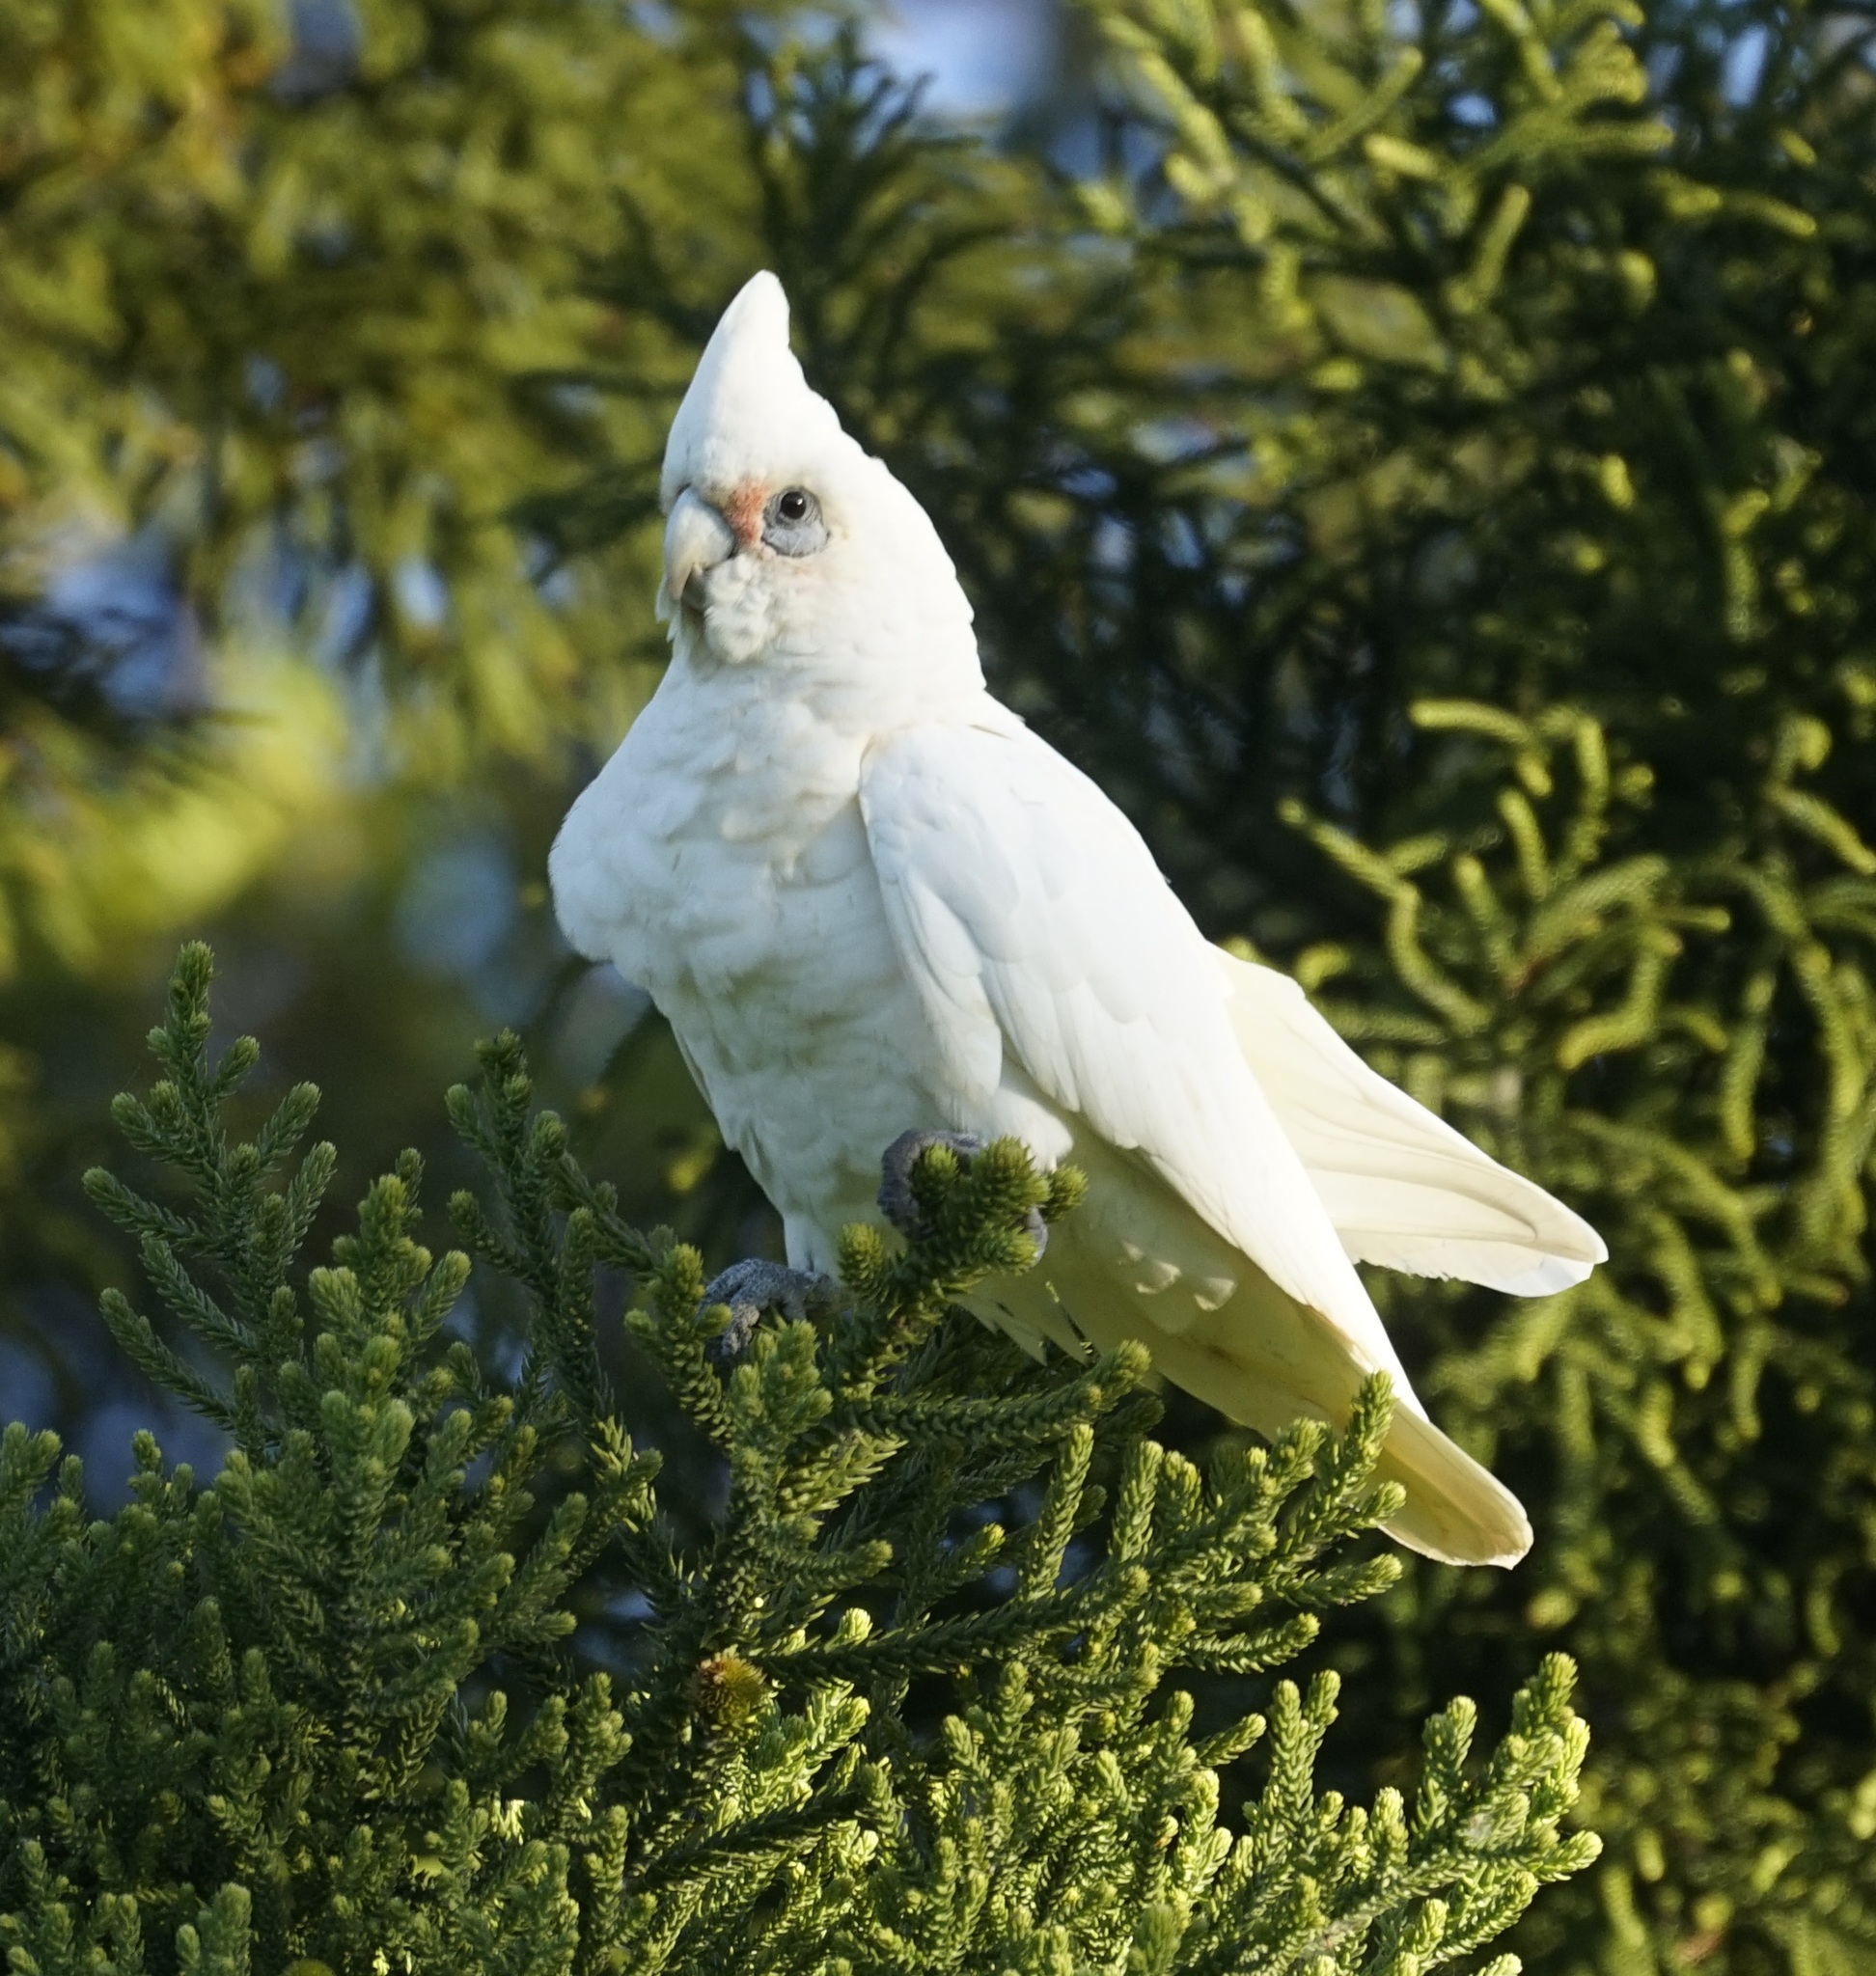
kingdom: Animalia
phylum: Chordata
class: Aves
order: Psittaciformes
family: Psittacidae
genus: Cacatua
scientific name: Cacatua sanguinea
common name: Little corella
